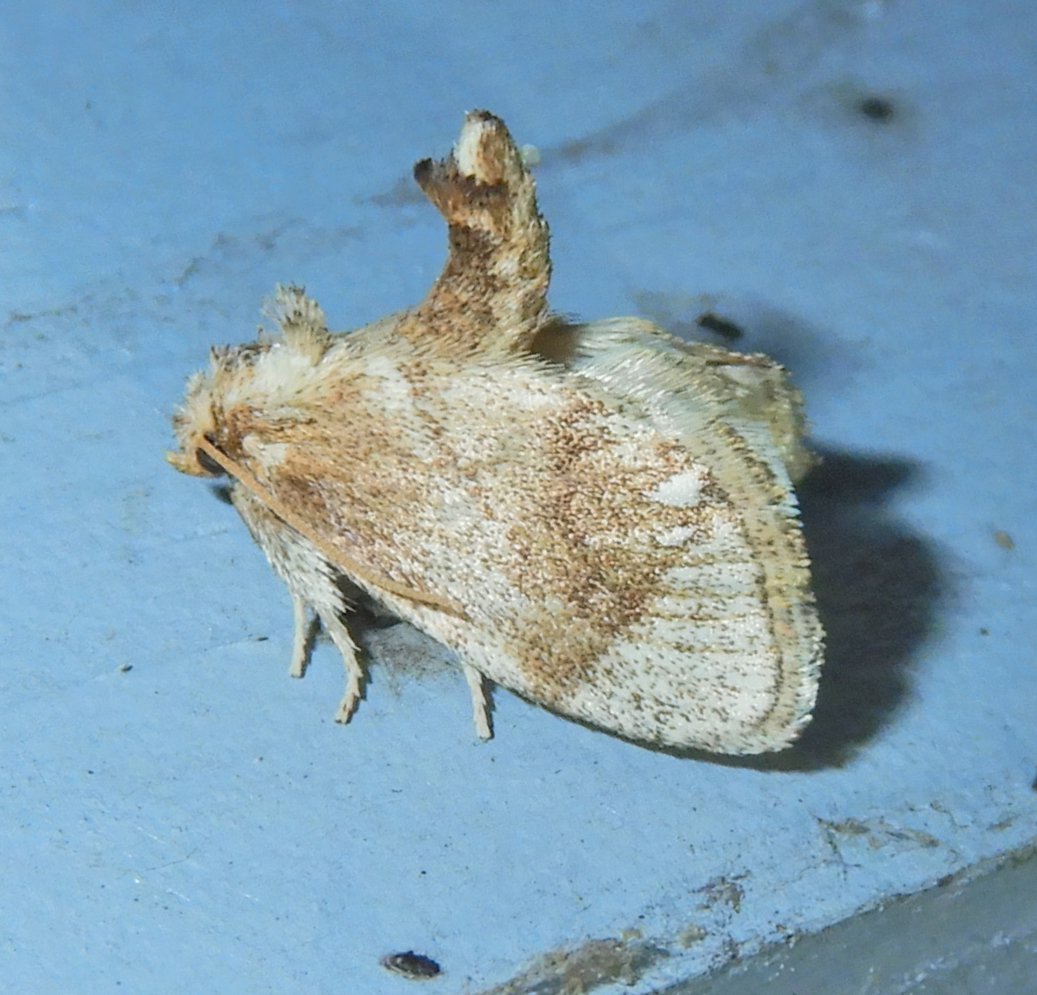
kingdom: Animalia
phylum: Arthropoda
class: Insecta
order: Lepidoptera
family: Limacodidae
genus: Packardia
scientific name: Packardia geminata
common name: Jeweled tailed slug moth
